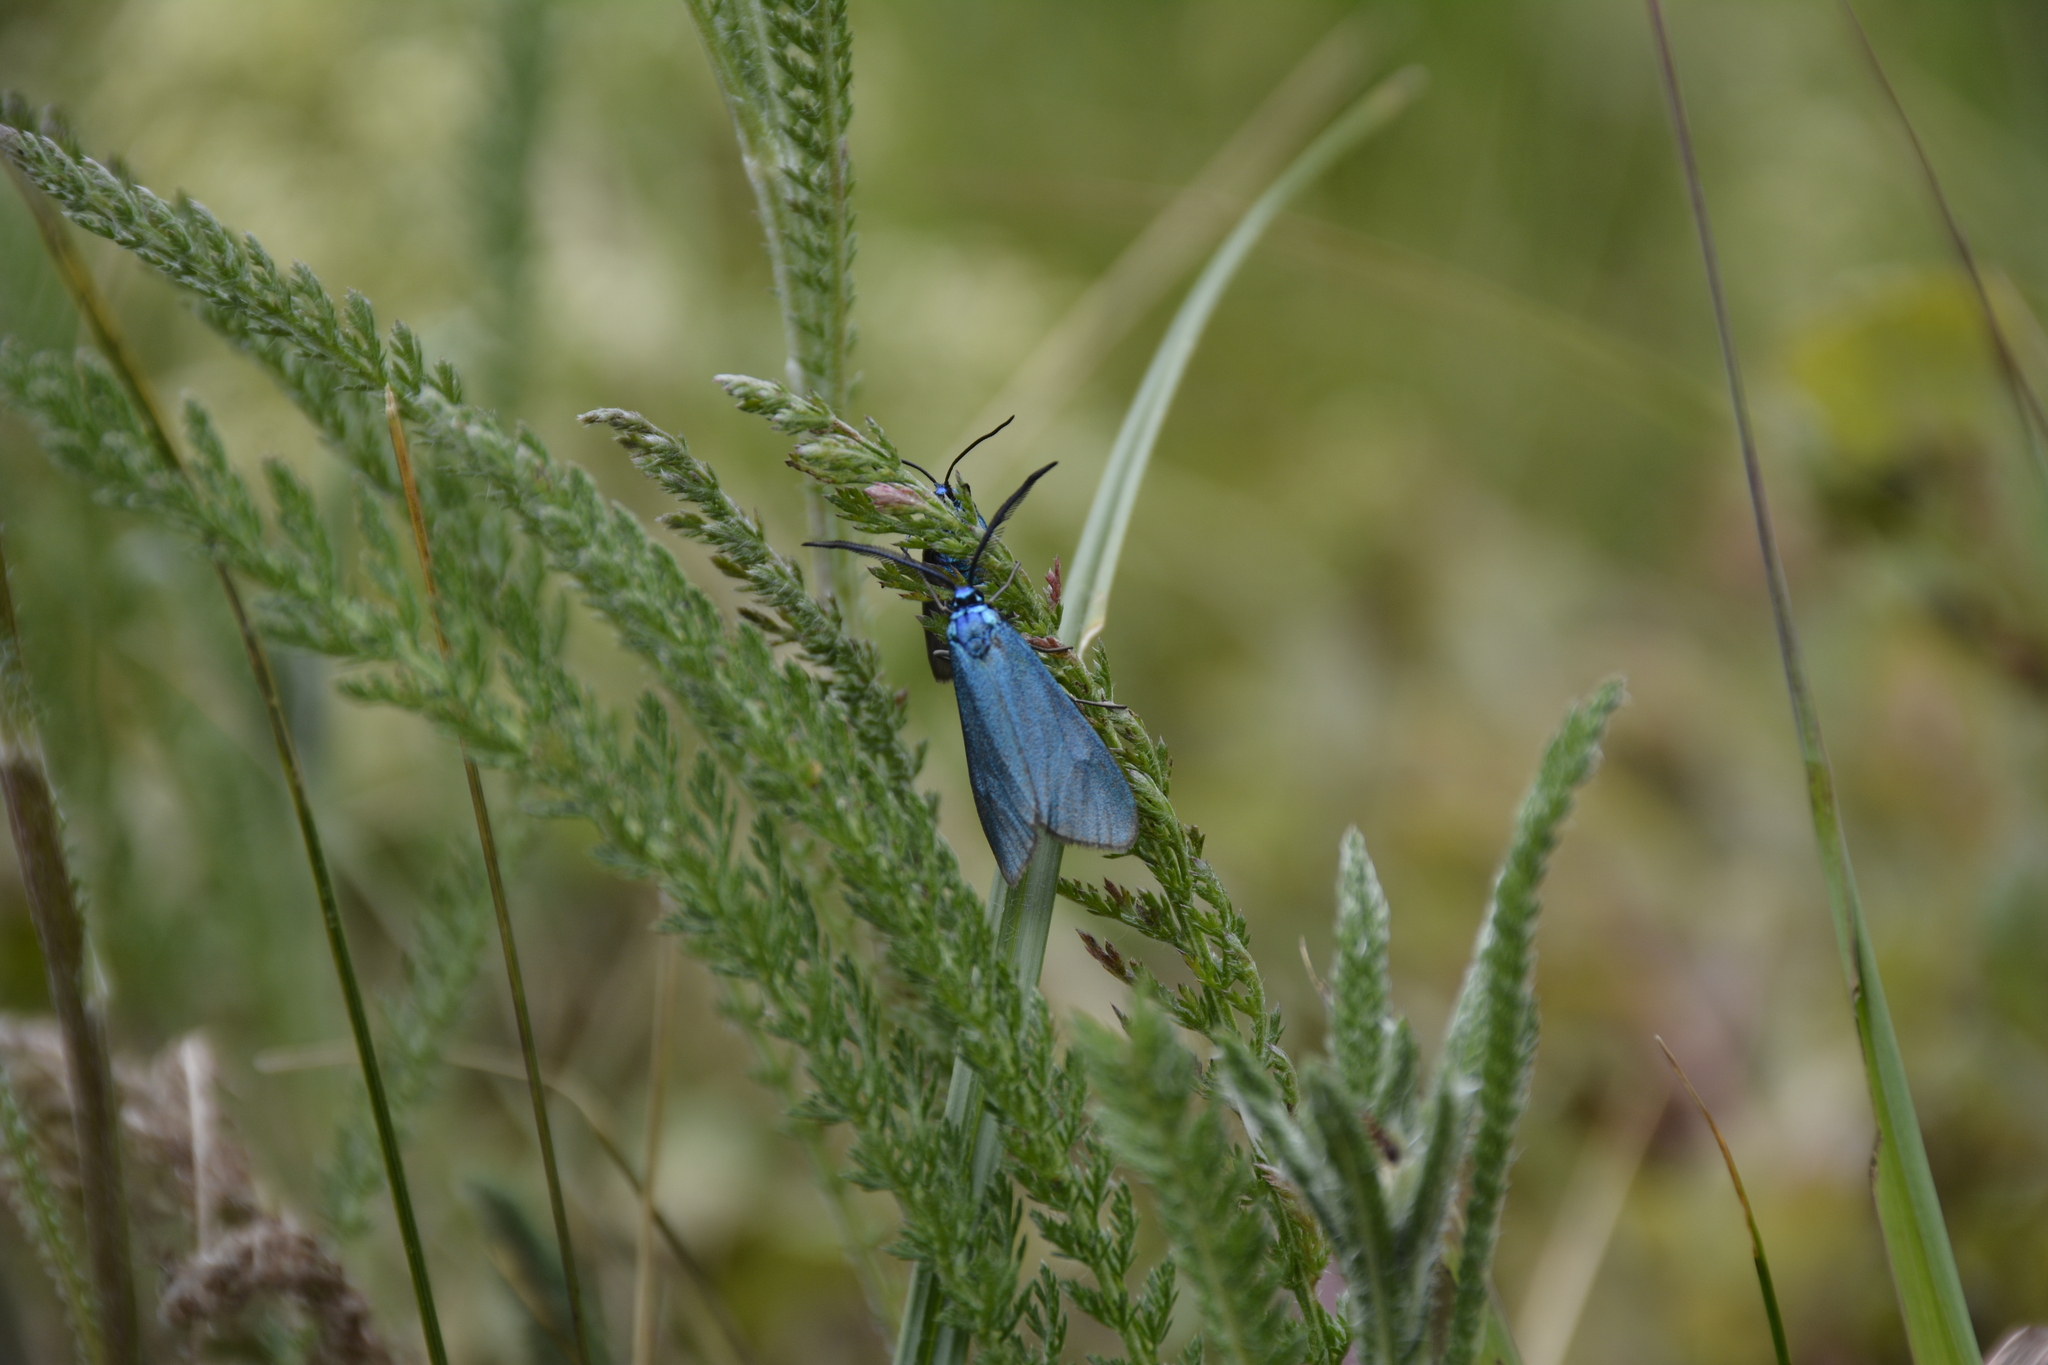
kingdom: Animalia
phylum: Arthropoda
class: Insecta
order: Lepidoptera
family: Zygaenidae
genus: Jordanita
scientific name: Jordanita globulariae
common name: Scarce forester
